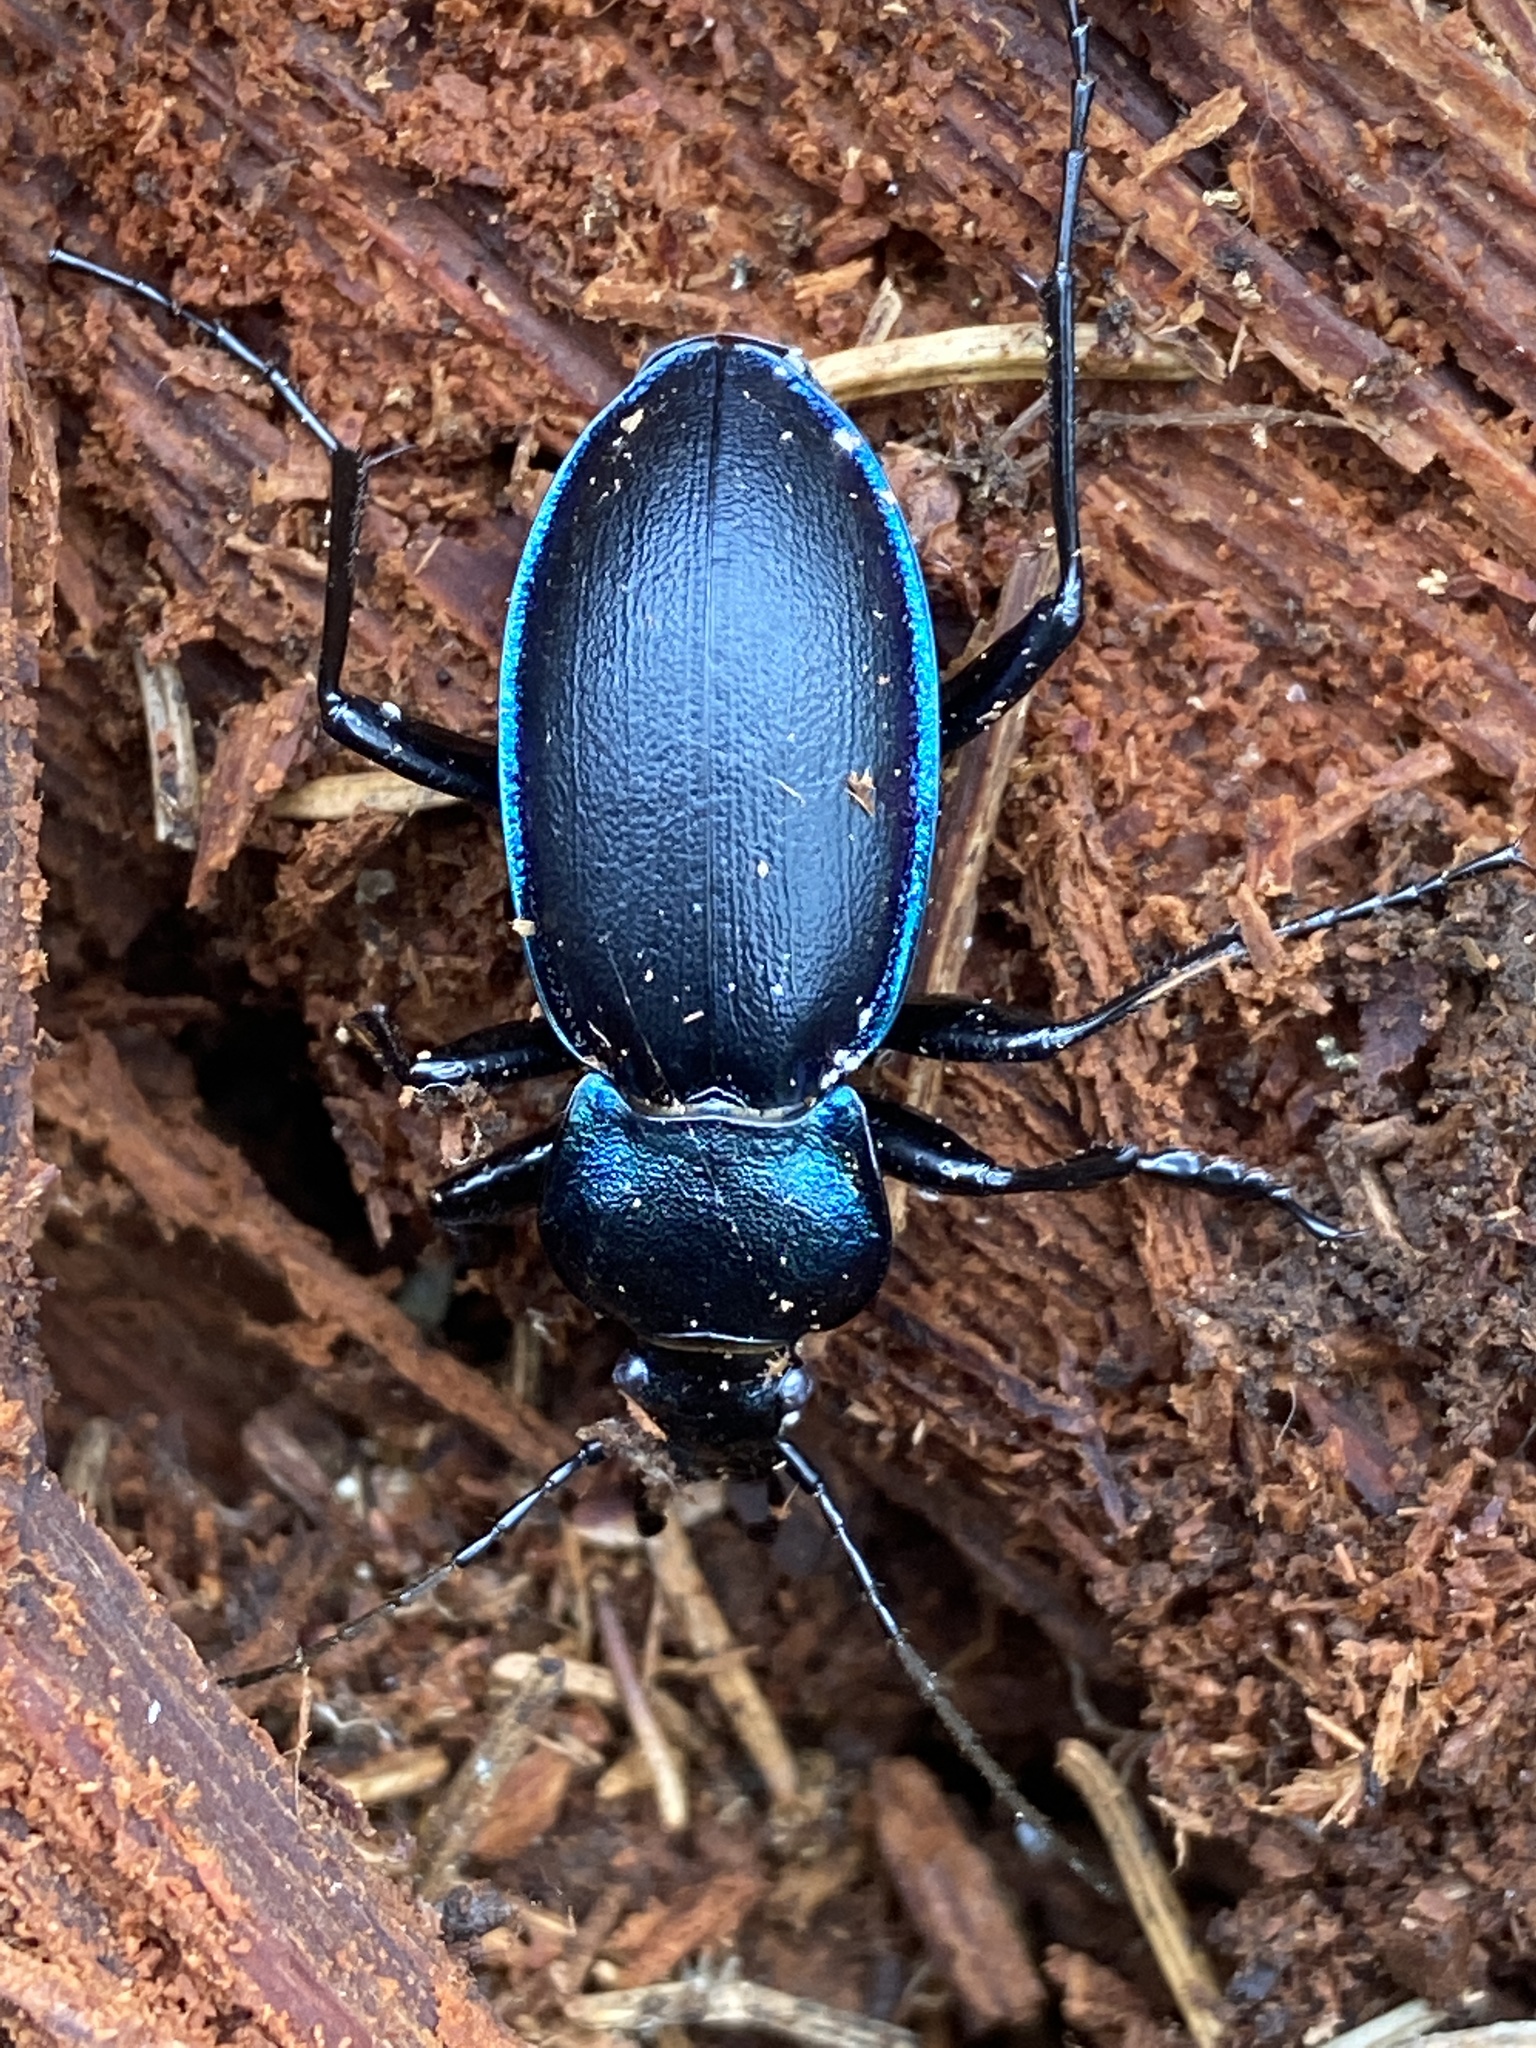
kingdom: Animalia
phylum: Arthropoda
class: Insecta
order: Coleoptera
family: Carabidae
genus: Carabus
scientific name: Carabus violaceus
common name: Violet ground beetle
